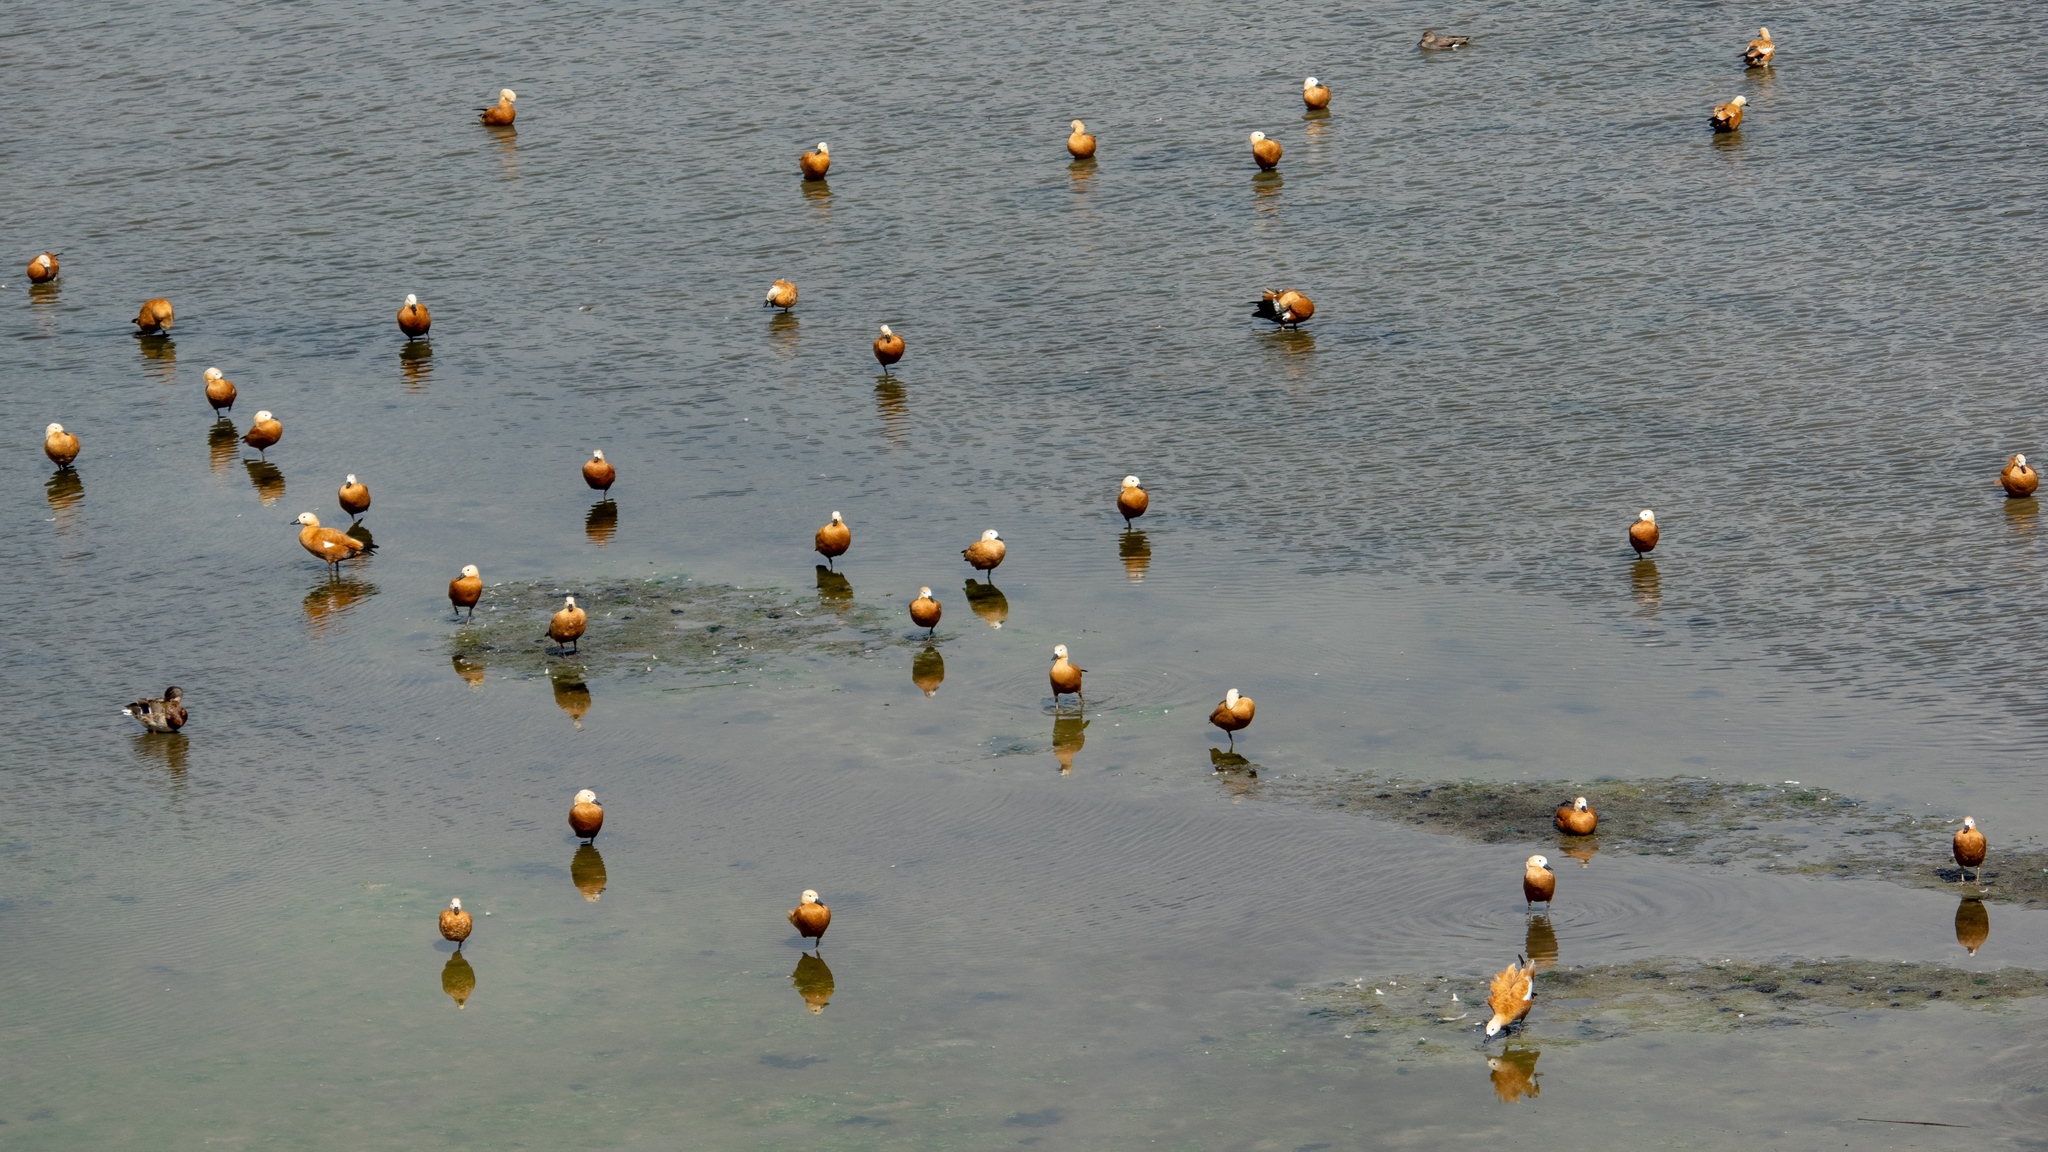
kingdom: Animalia
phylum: Chordata
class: Aves
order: Anseriformes
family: Anatidae
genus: Tadorna
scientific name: Tadorna ferruginea
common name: Ruddy shelduck
